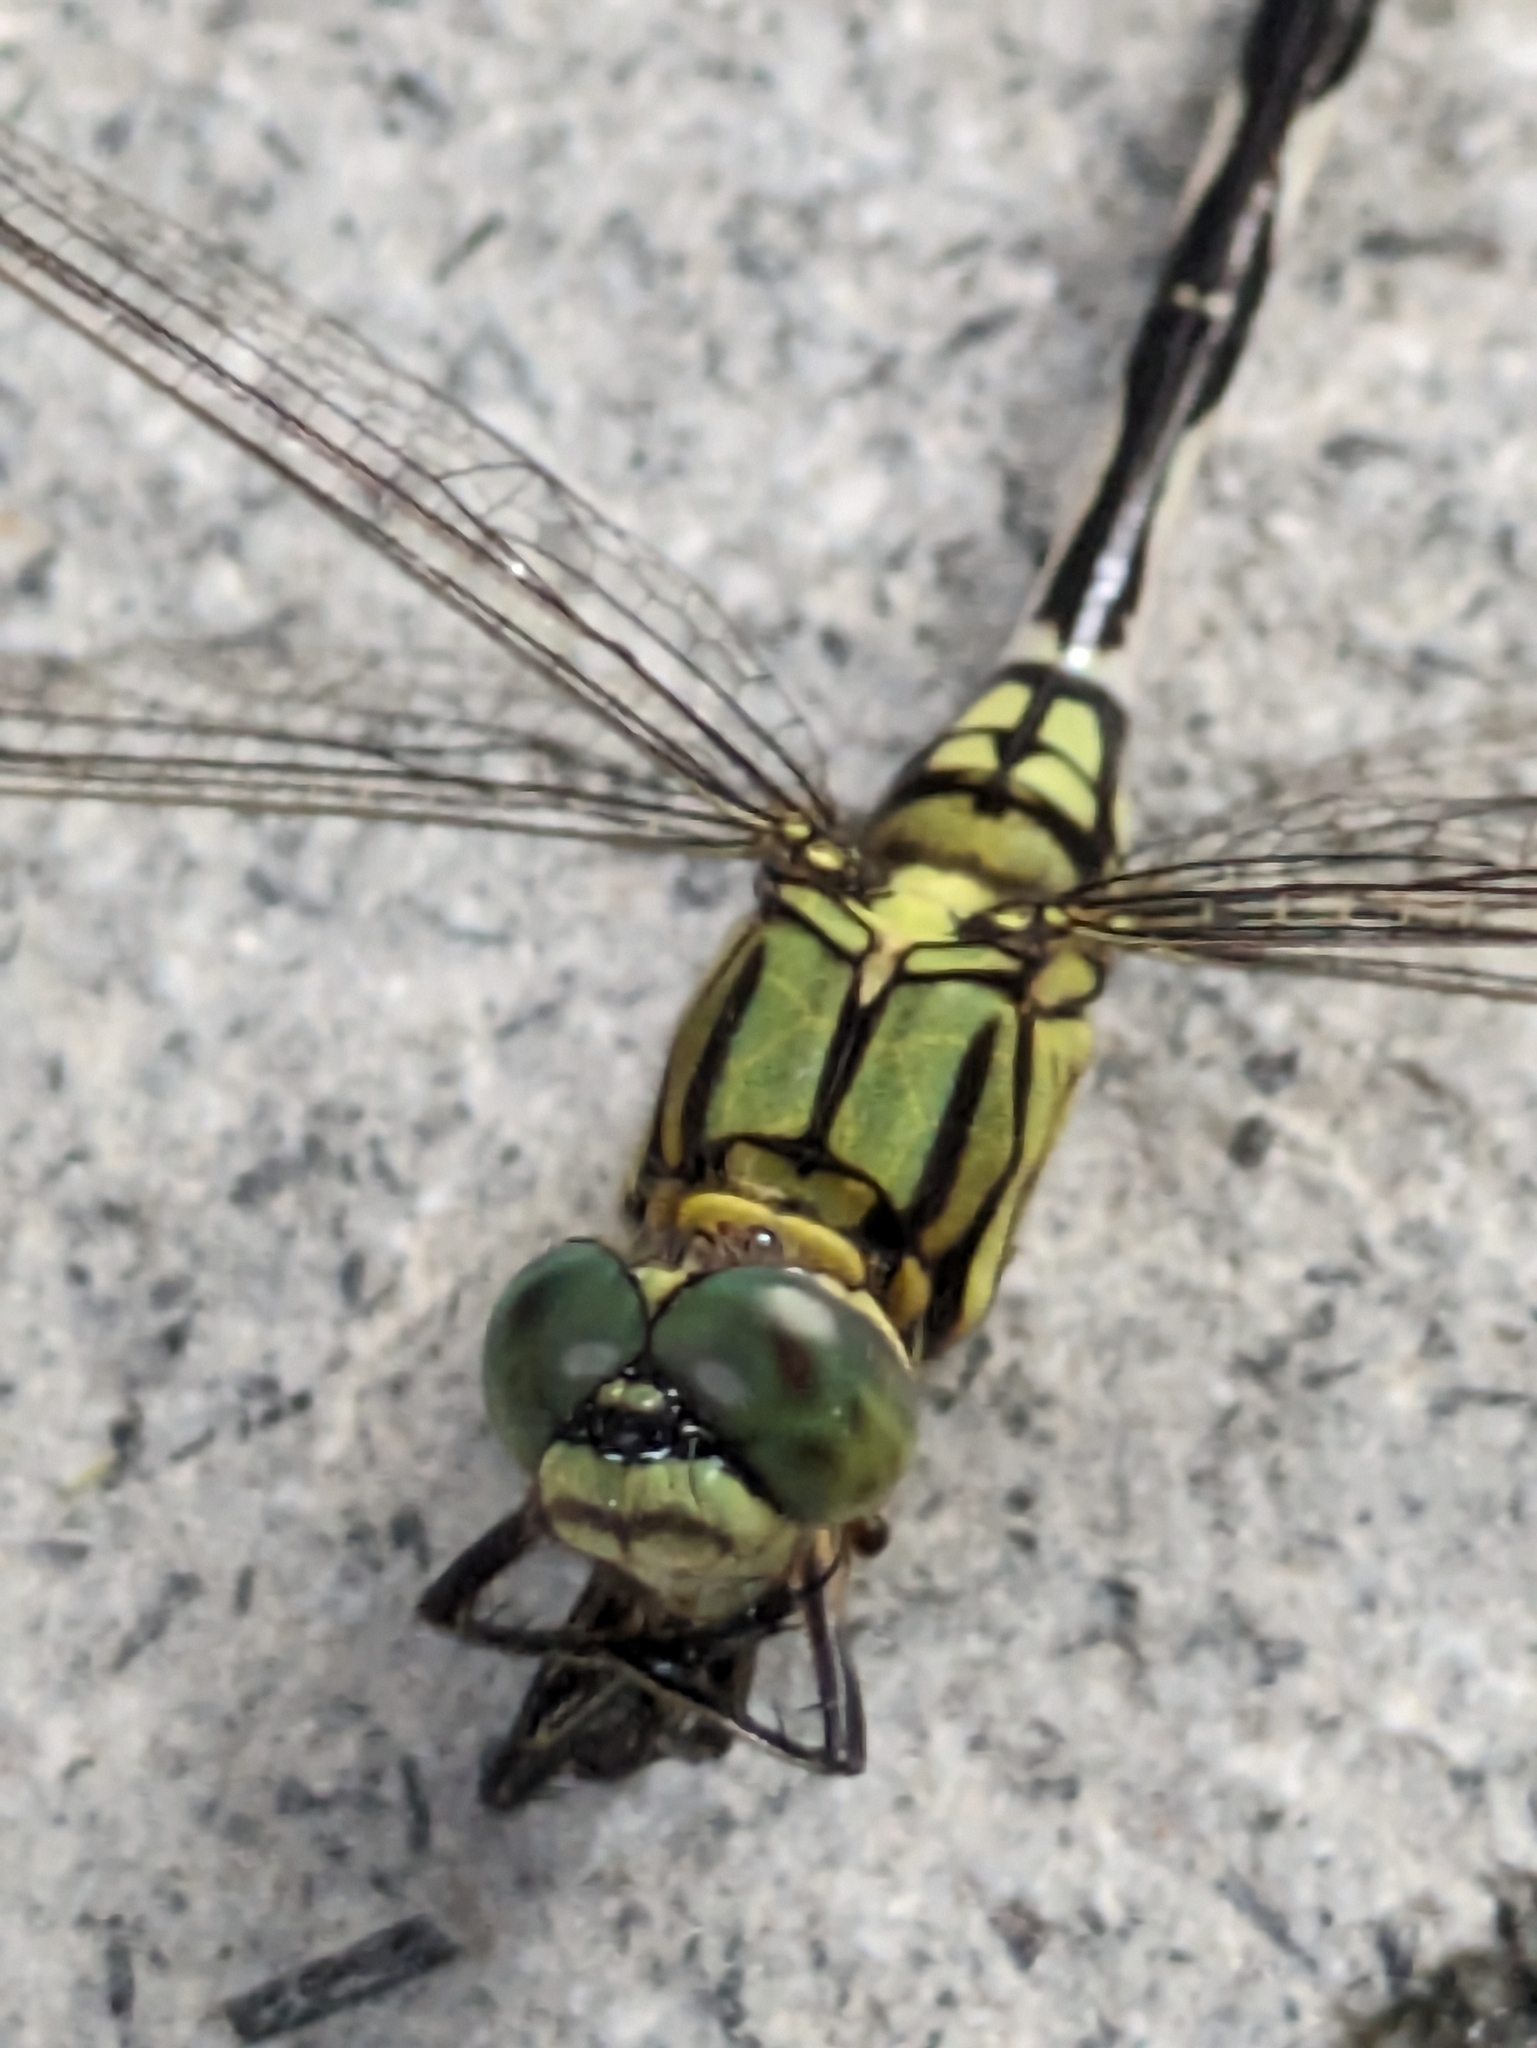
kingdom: Animalia
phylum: Arthropoda
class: Insecta
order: Odonata
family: Libellulidae
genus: Orthetrum
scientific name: Orthetrum sabina
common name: Slender skimmer
